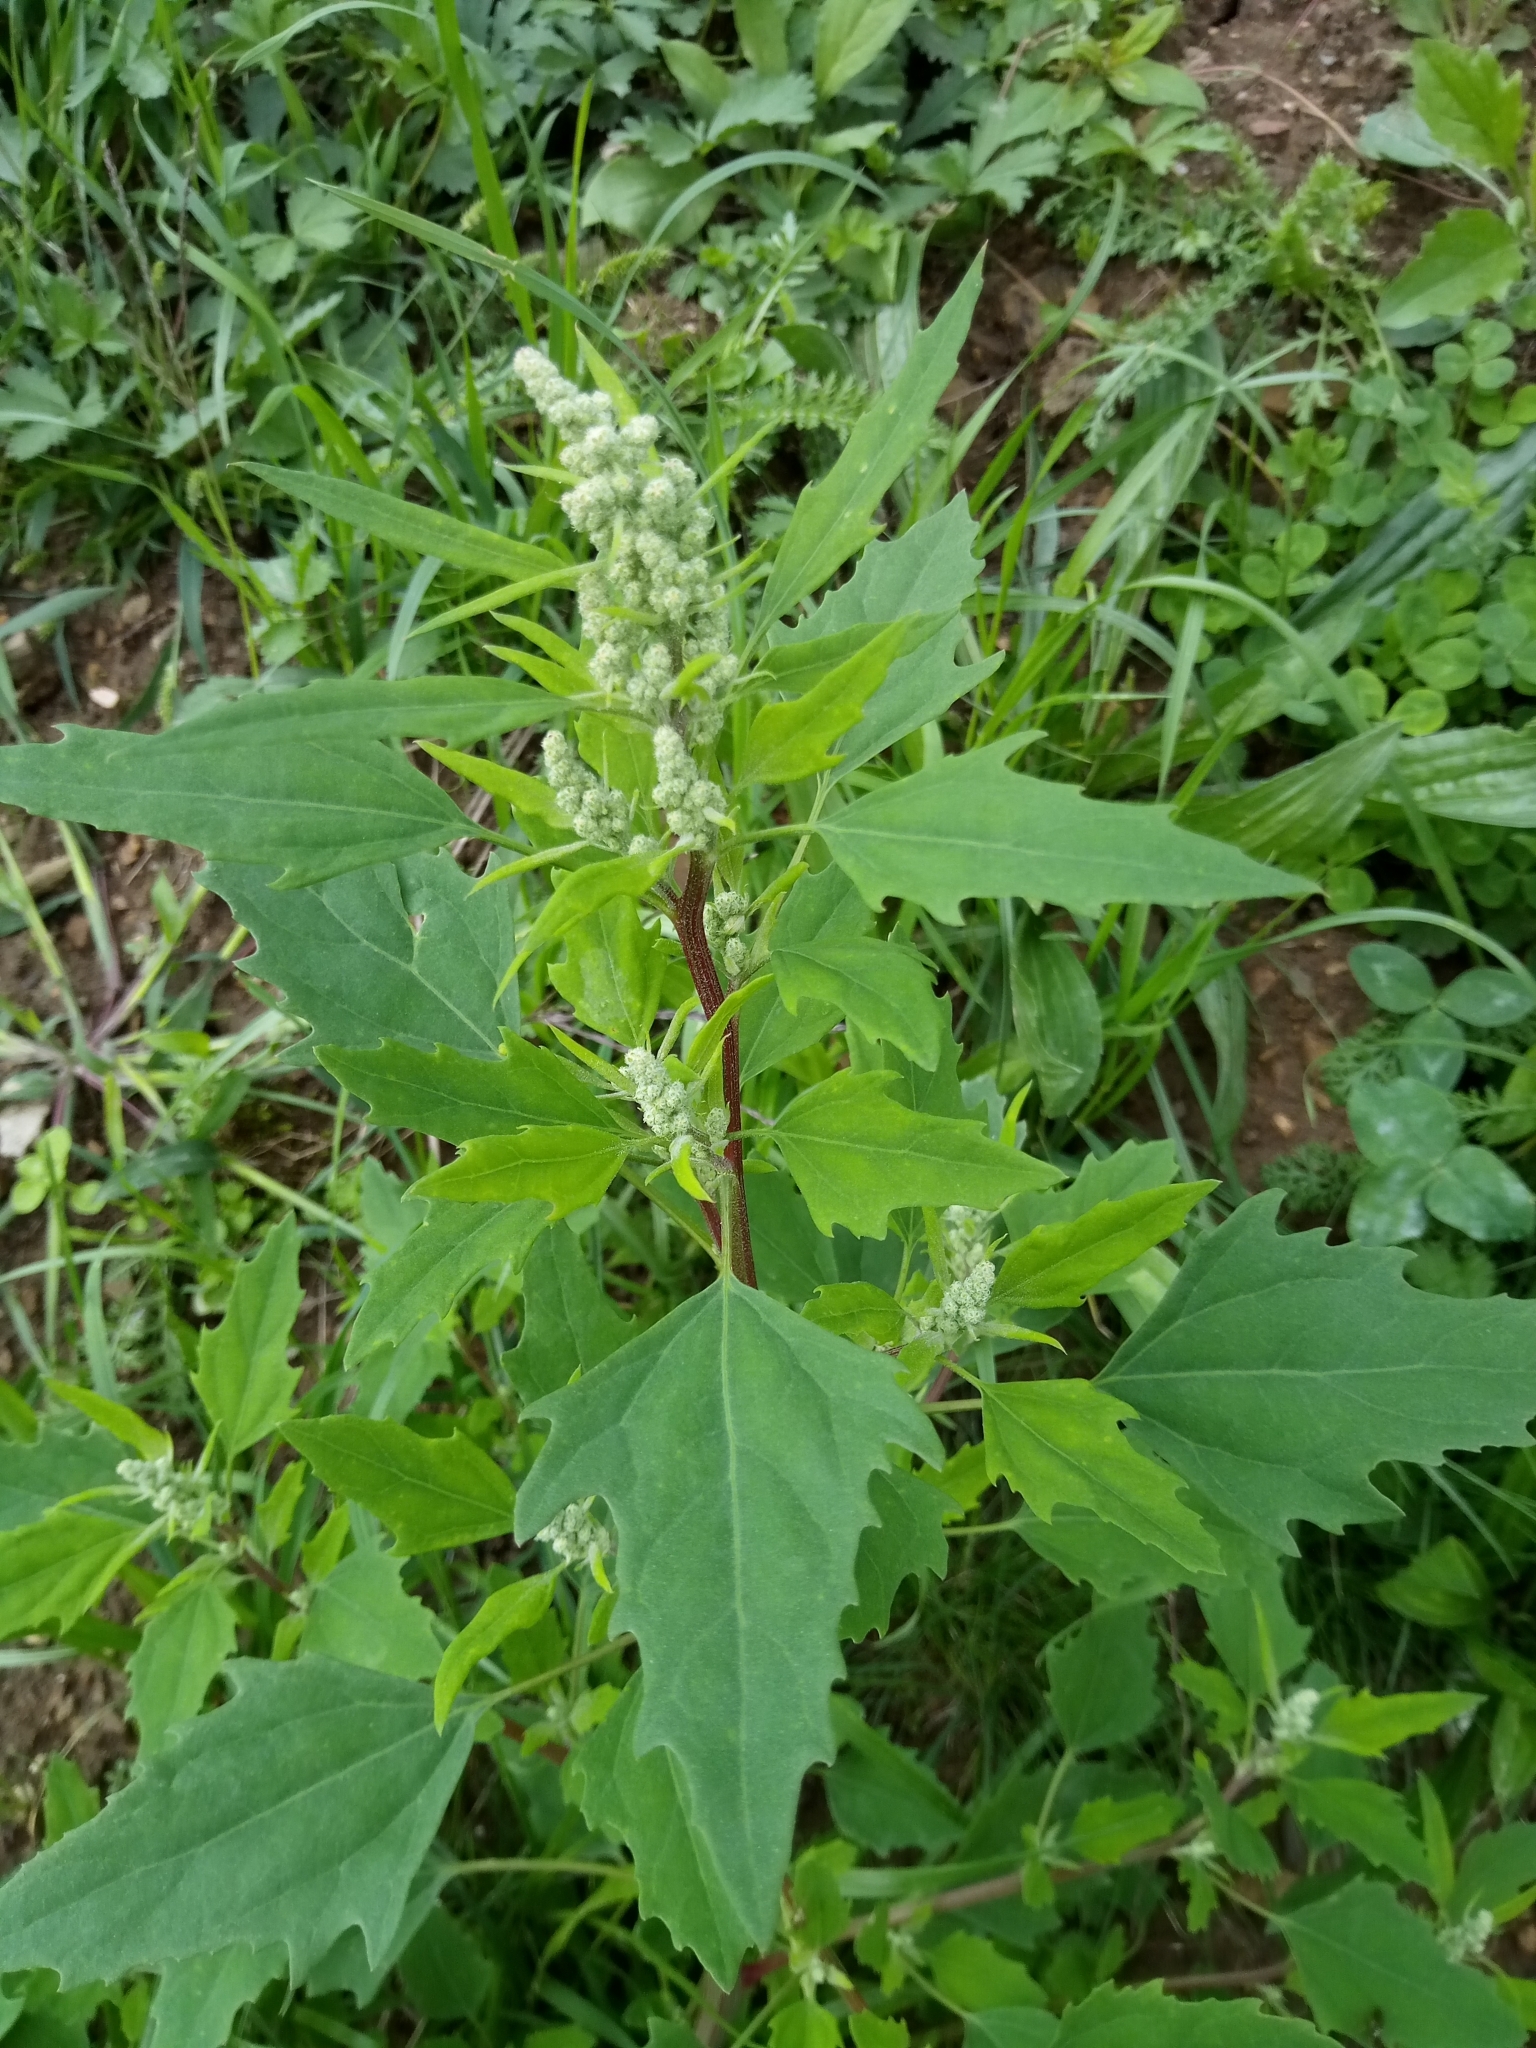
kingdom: Plantae
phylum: Tracheophyta
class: Magnoliopsida
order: Caryophyllales
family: Amaranthaceae
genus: Chenopodium
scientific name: Chenopodium album
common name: Fat-hen
